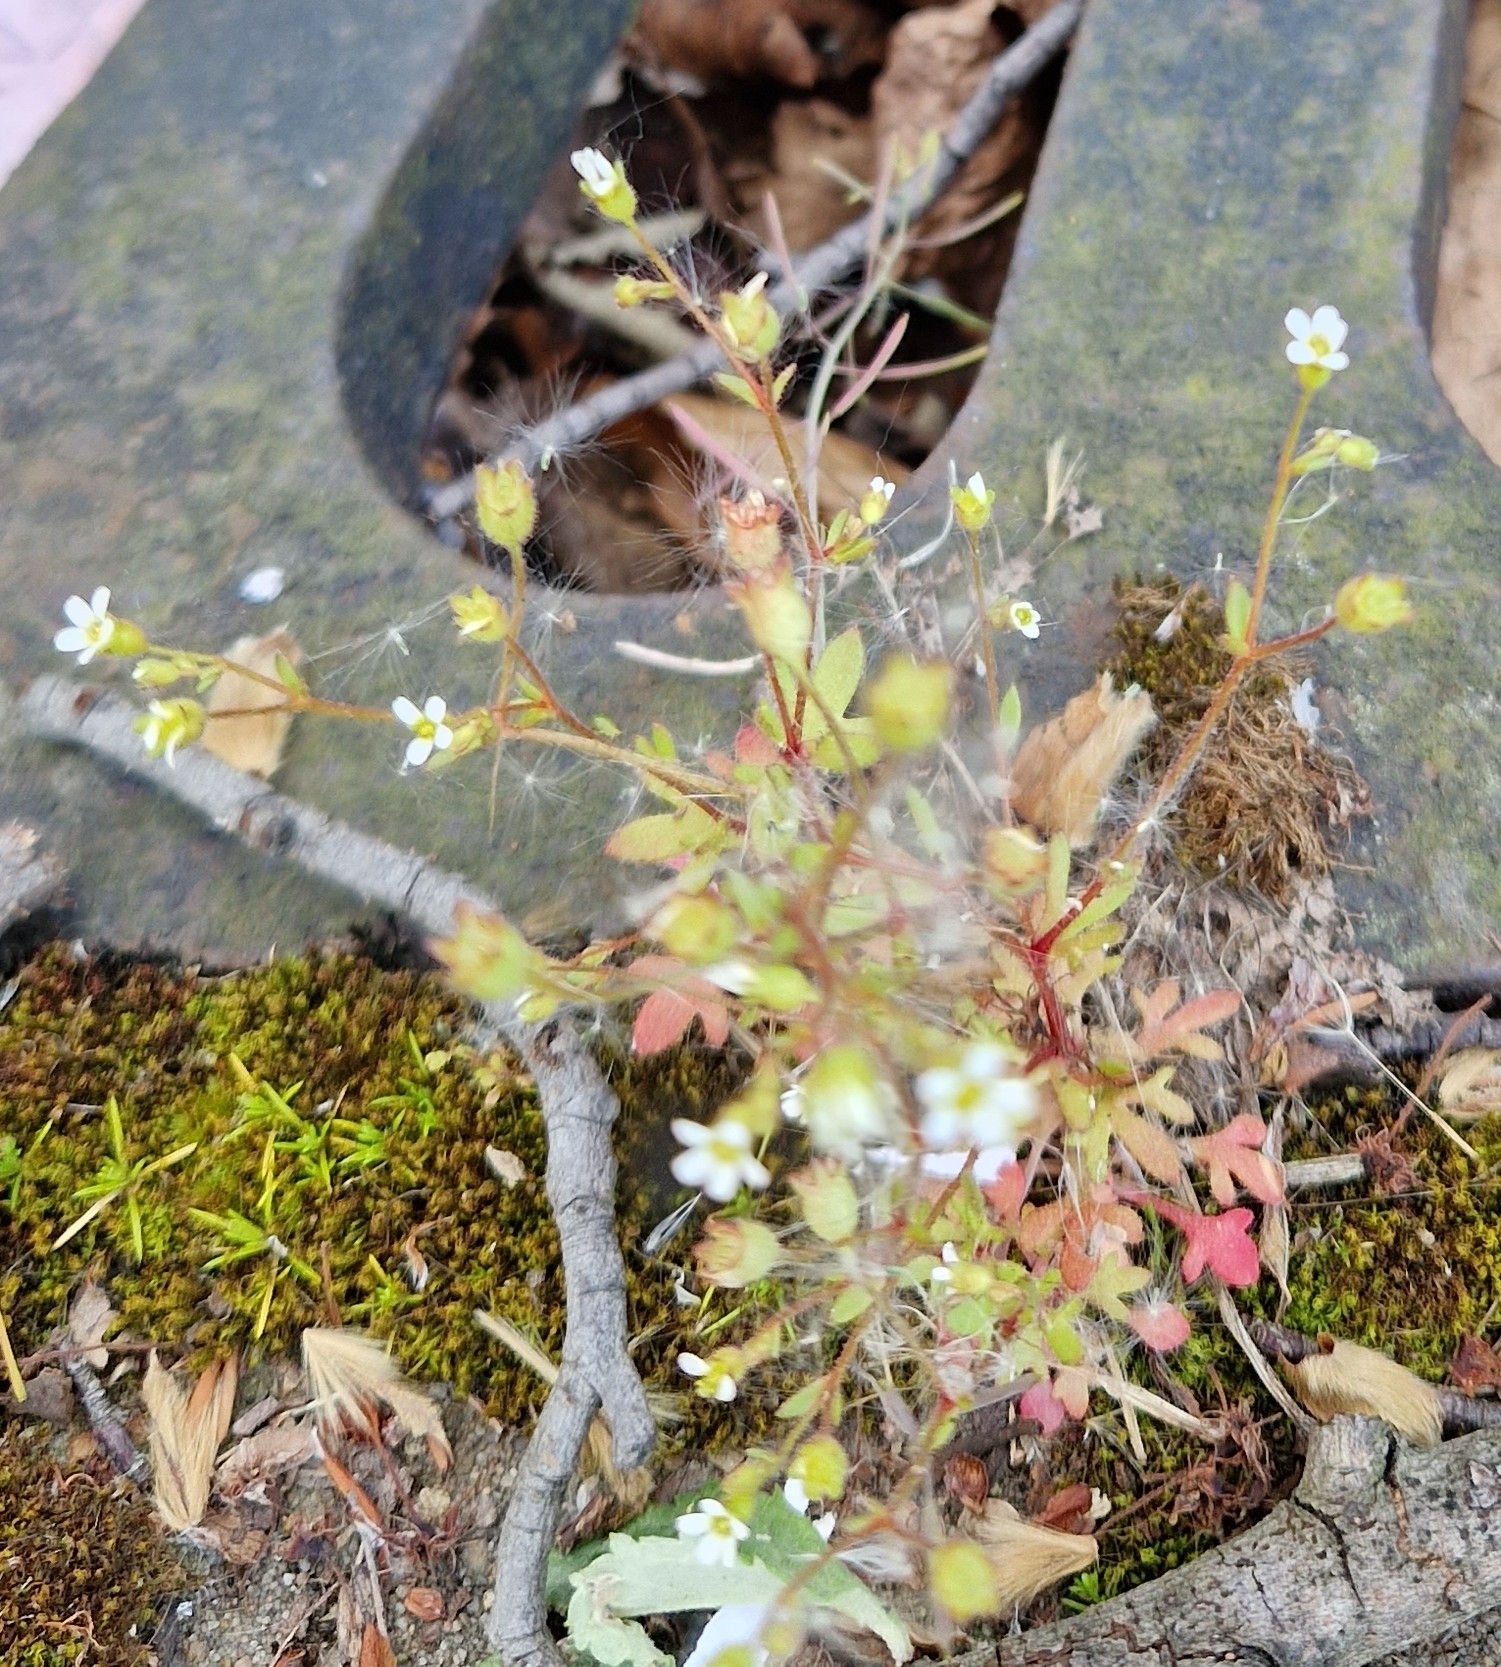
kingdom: Plantae
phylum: Tracheophyta
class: Magnoliopsida
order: Saxifragales
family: Saxifragaceae
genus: Saxifraga
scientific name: Saxifraga tridactylites
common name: Rue-leaved saxifrage
